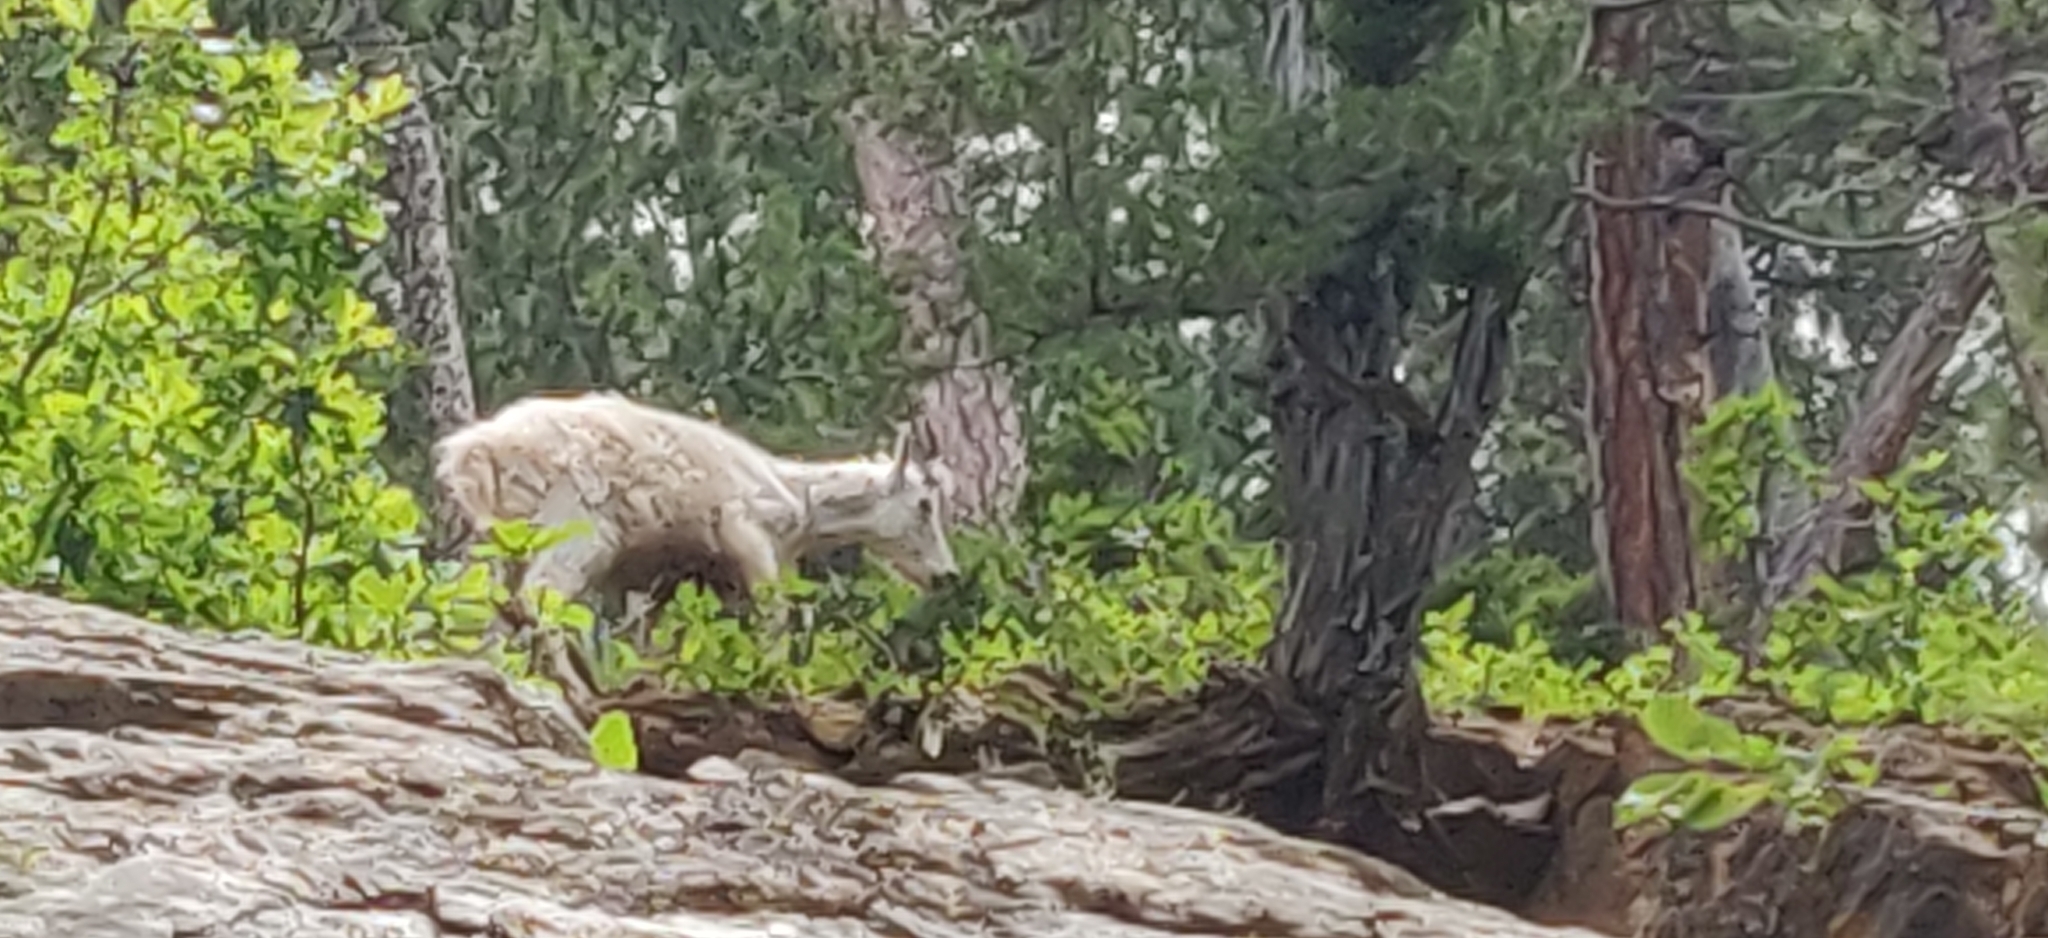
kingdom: Animalia
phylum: Chordata
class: Mammalia
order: Artiodactyla
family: Bovidae
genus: Oreamnos
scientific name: Oreamnos americanus
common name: Mountain goat
